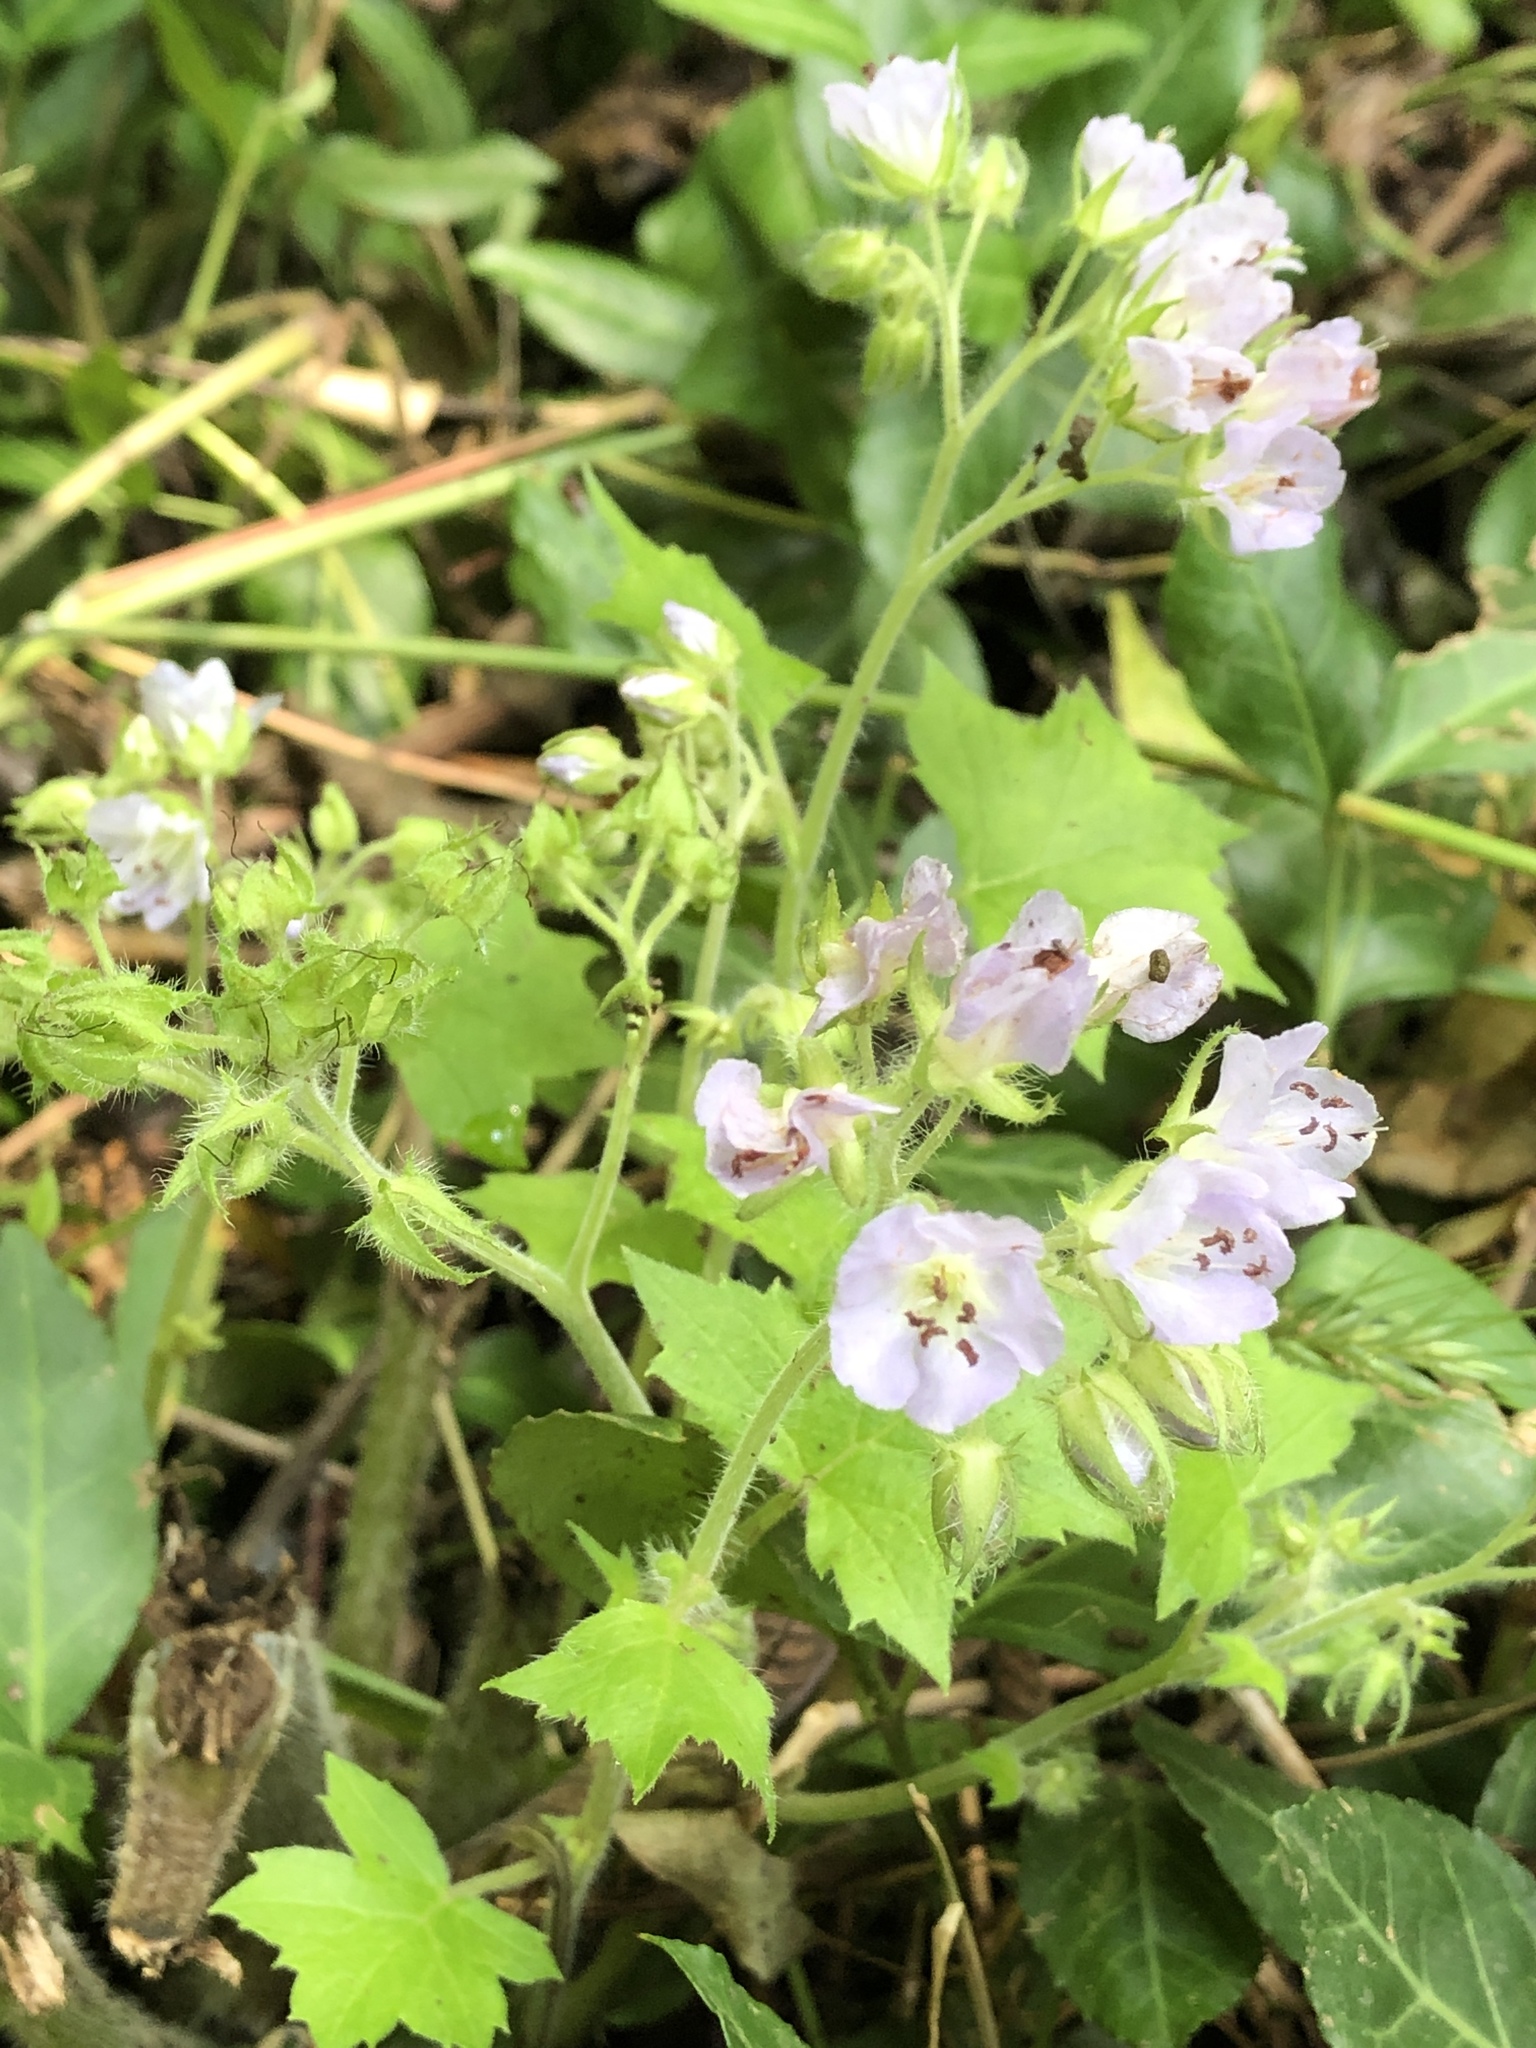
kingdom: Plantae
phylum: Tracheophyta
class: Magnoliopsida
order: Boraginales
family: Hydrophyllaceae
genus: Hydrophyllum
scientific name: Hydrophyllum appendiculatum
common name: Appendaged waterleaf
